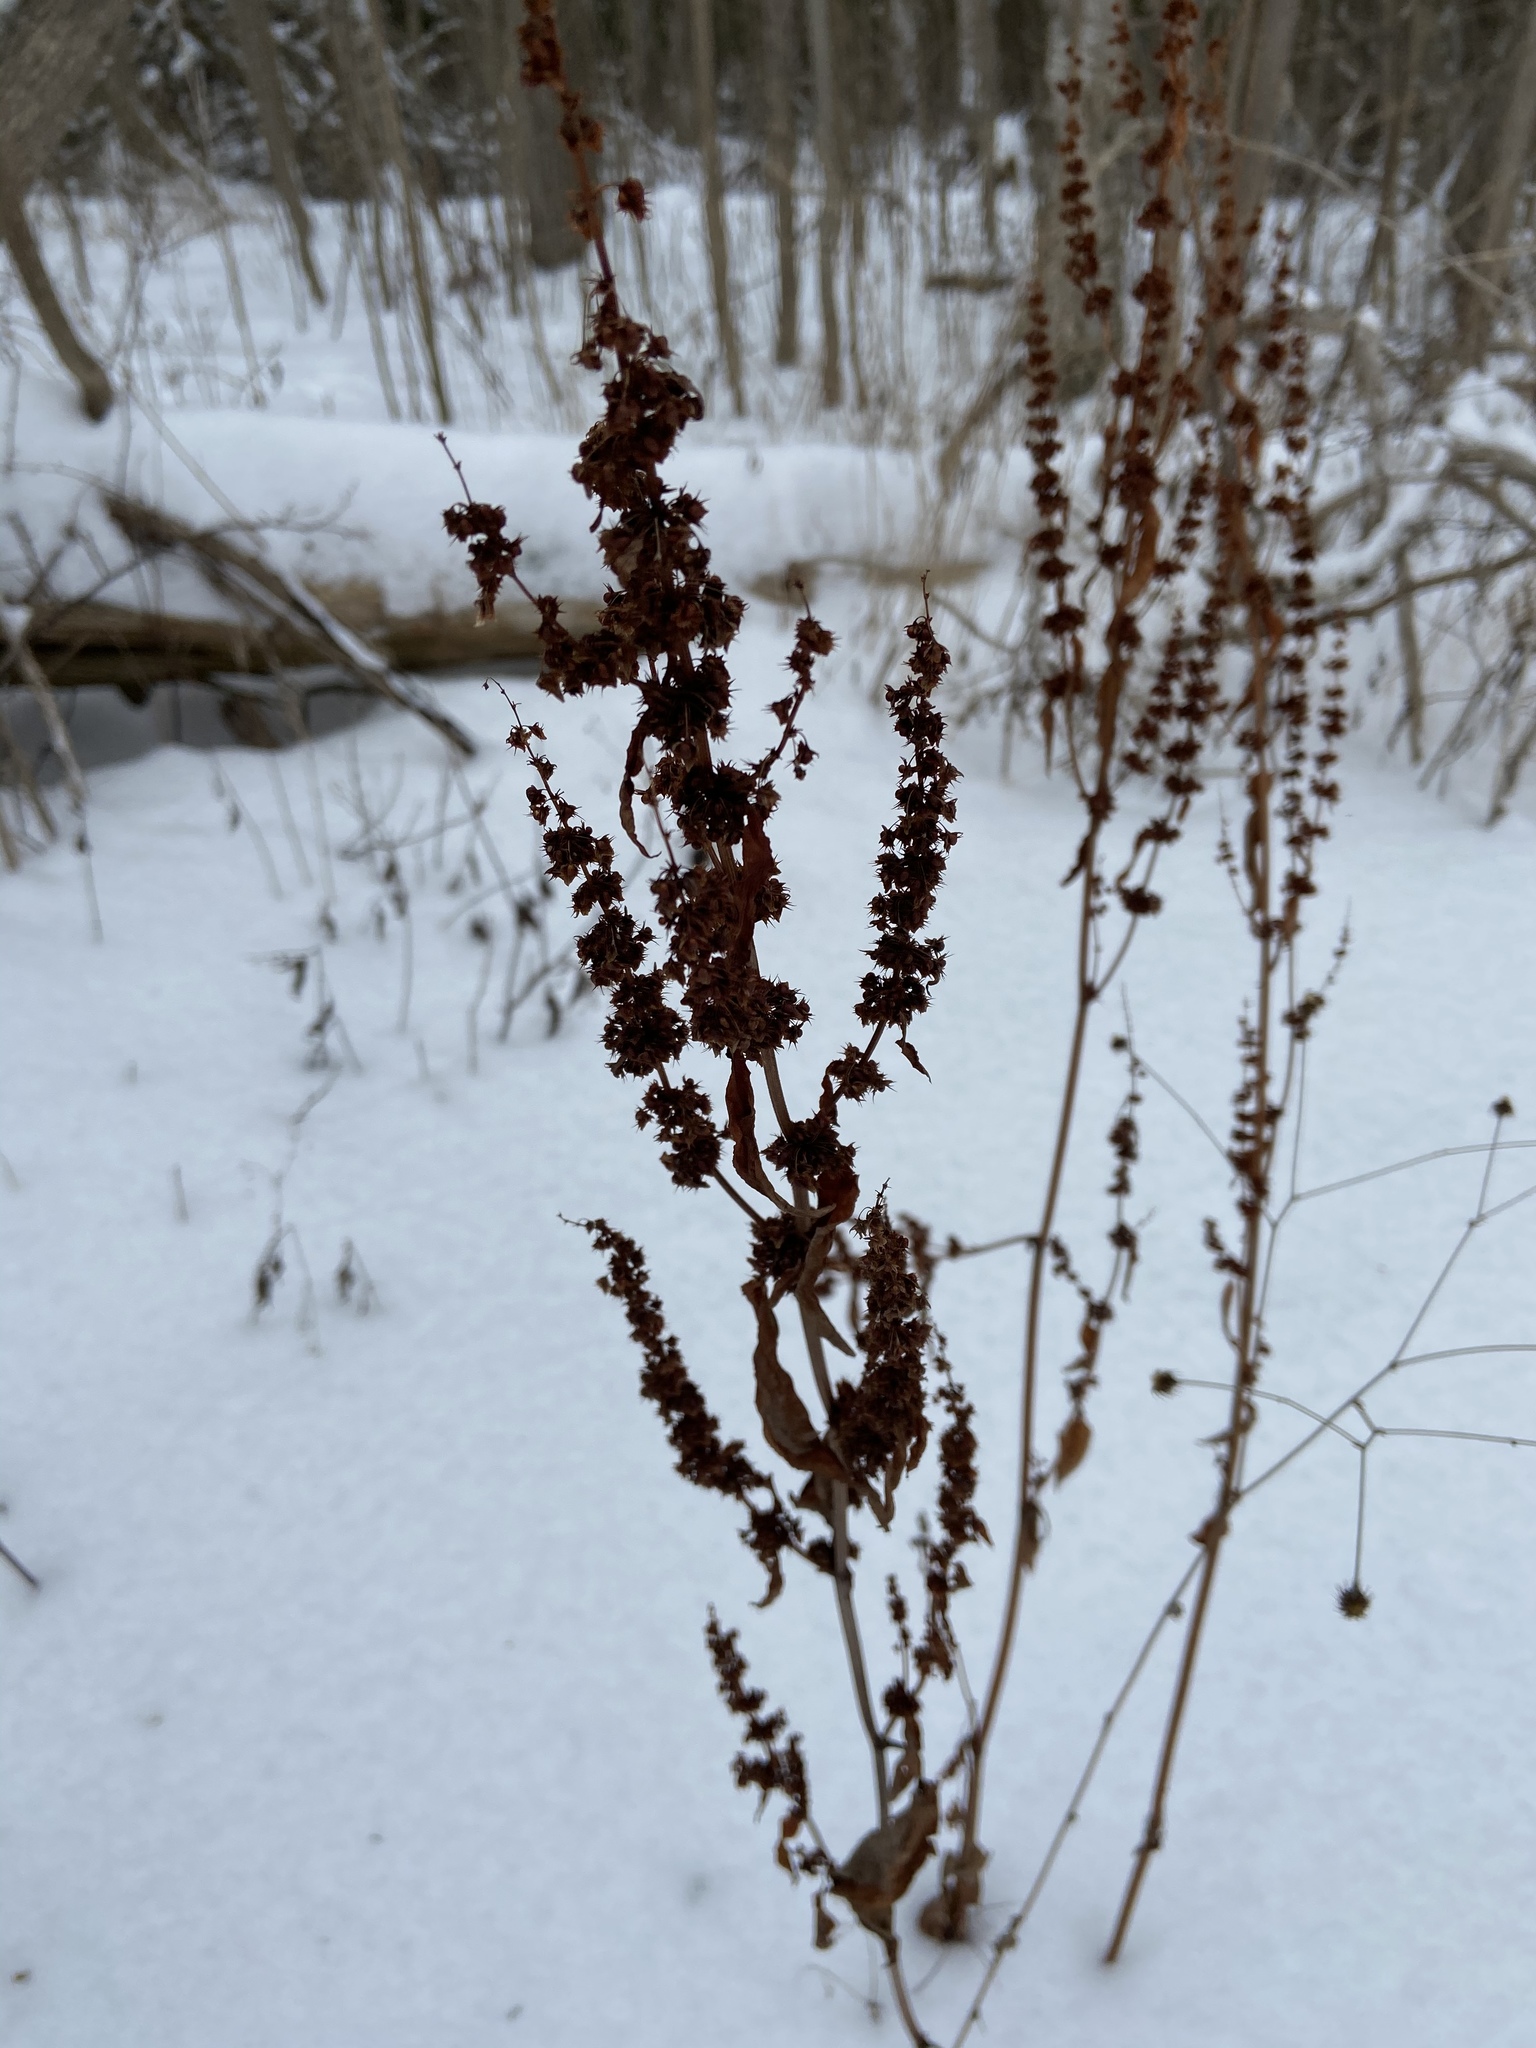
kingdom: Plantae
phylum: Tracheophyta
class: Magnoliopsida
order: Caryophyllales
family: Polygonaceae
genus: Rumex
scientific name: Rumex obtusifolius
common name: Bitter dock
